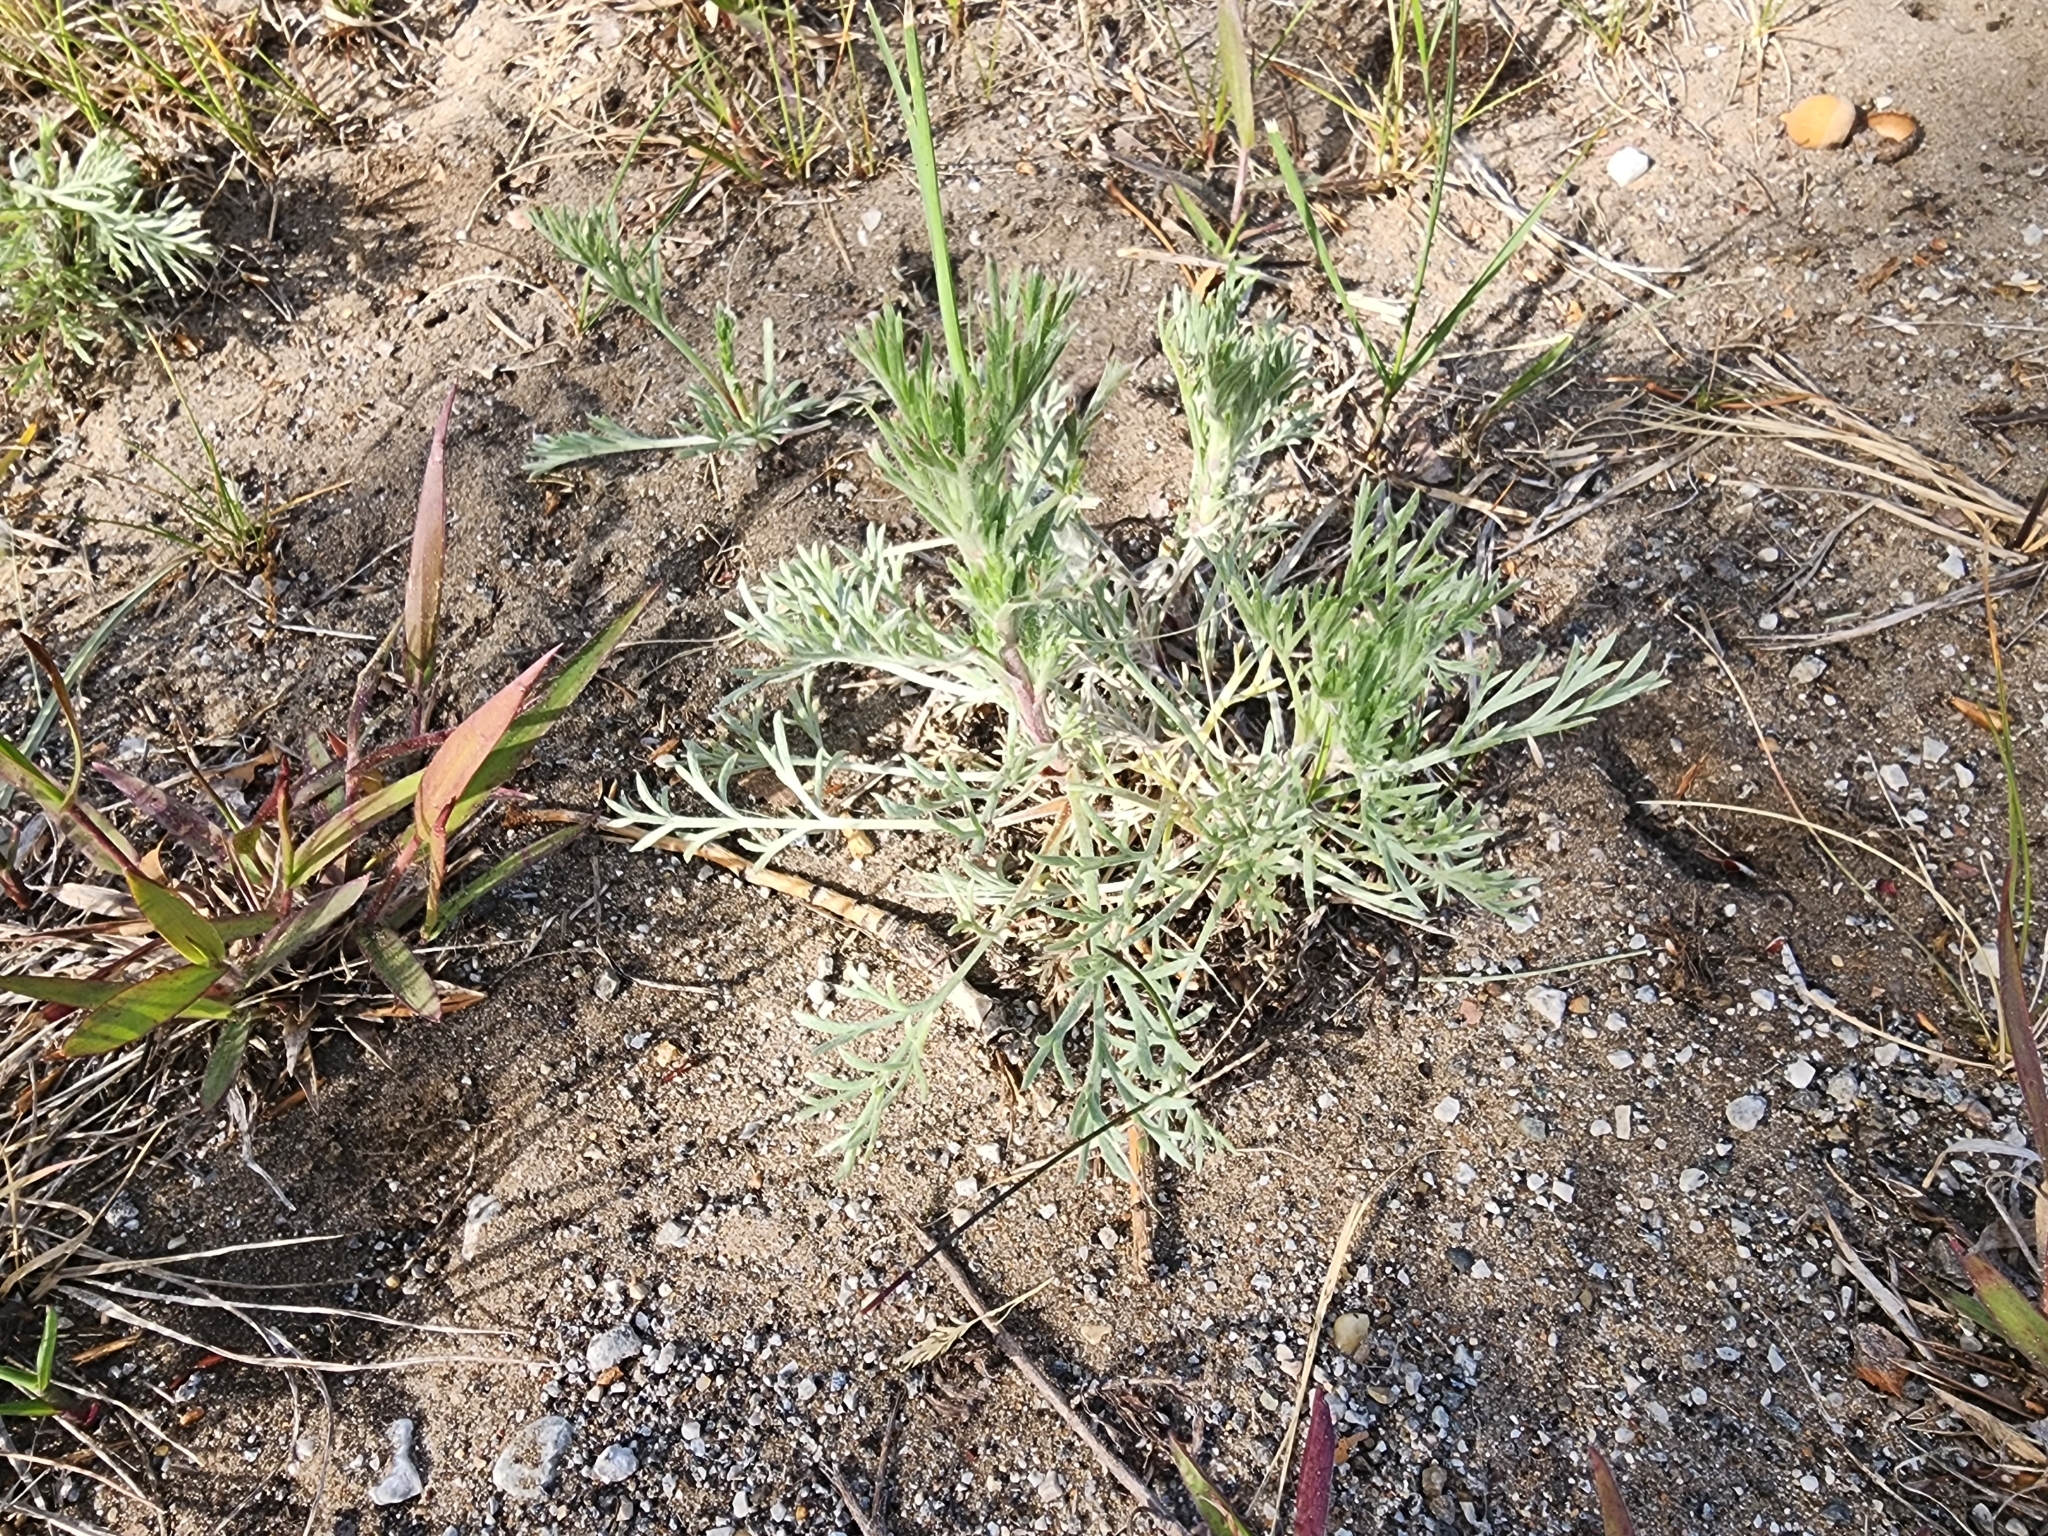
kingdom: Plantae
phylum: Tracheophyta
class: Magnoliopsida
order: Asterales
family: Asteraceae
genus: Artemisia
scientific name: Artemisia campestris
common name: Field wormwood
